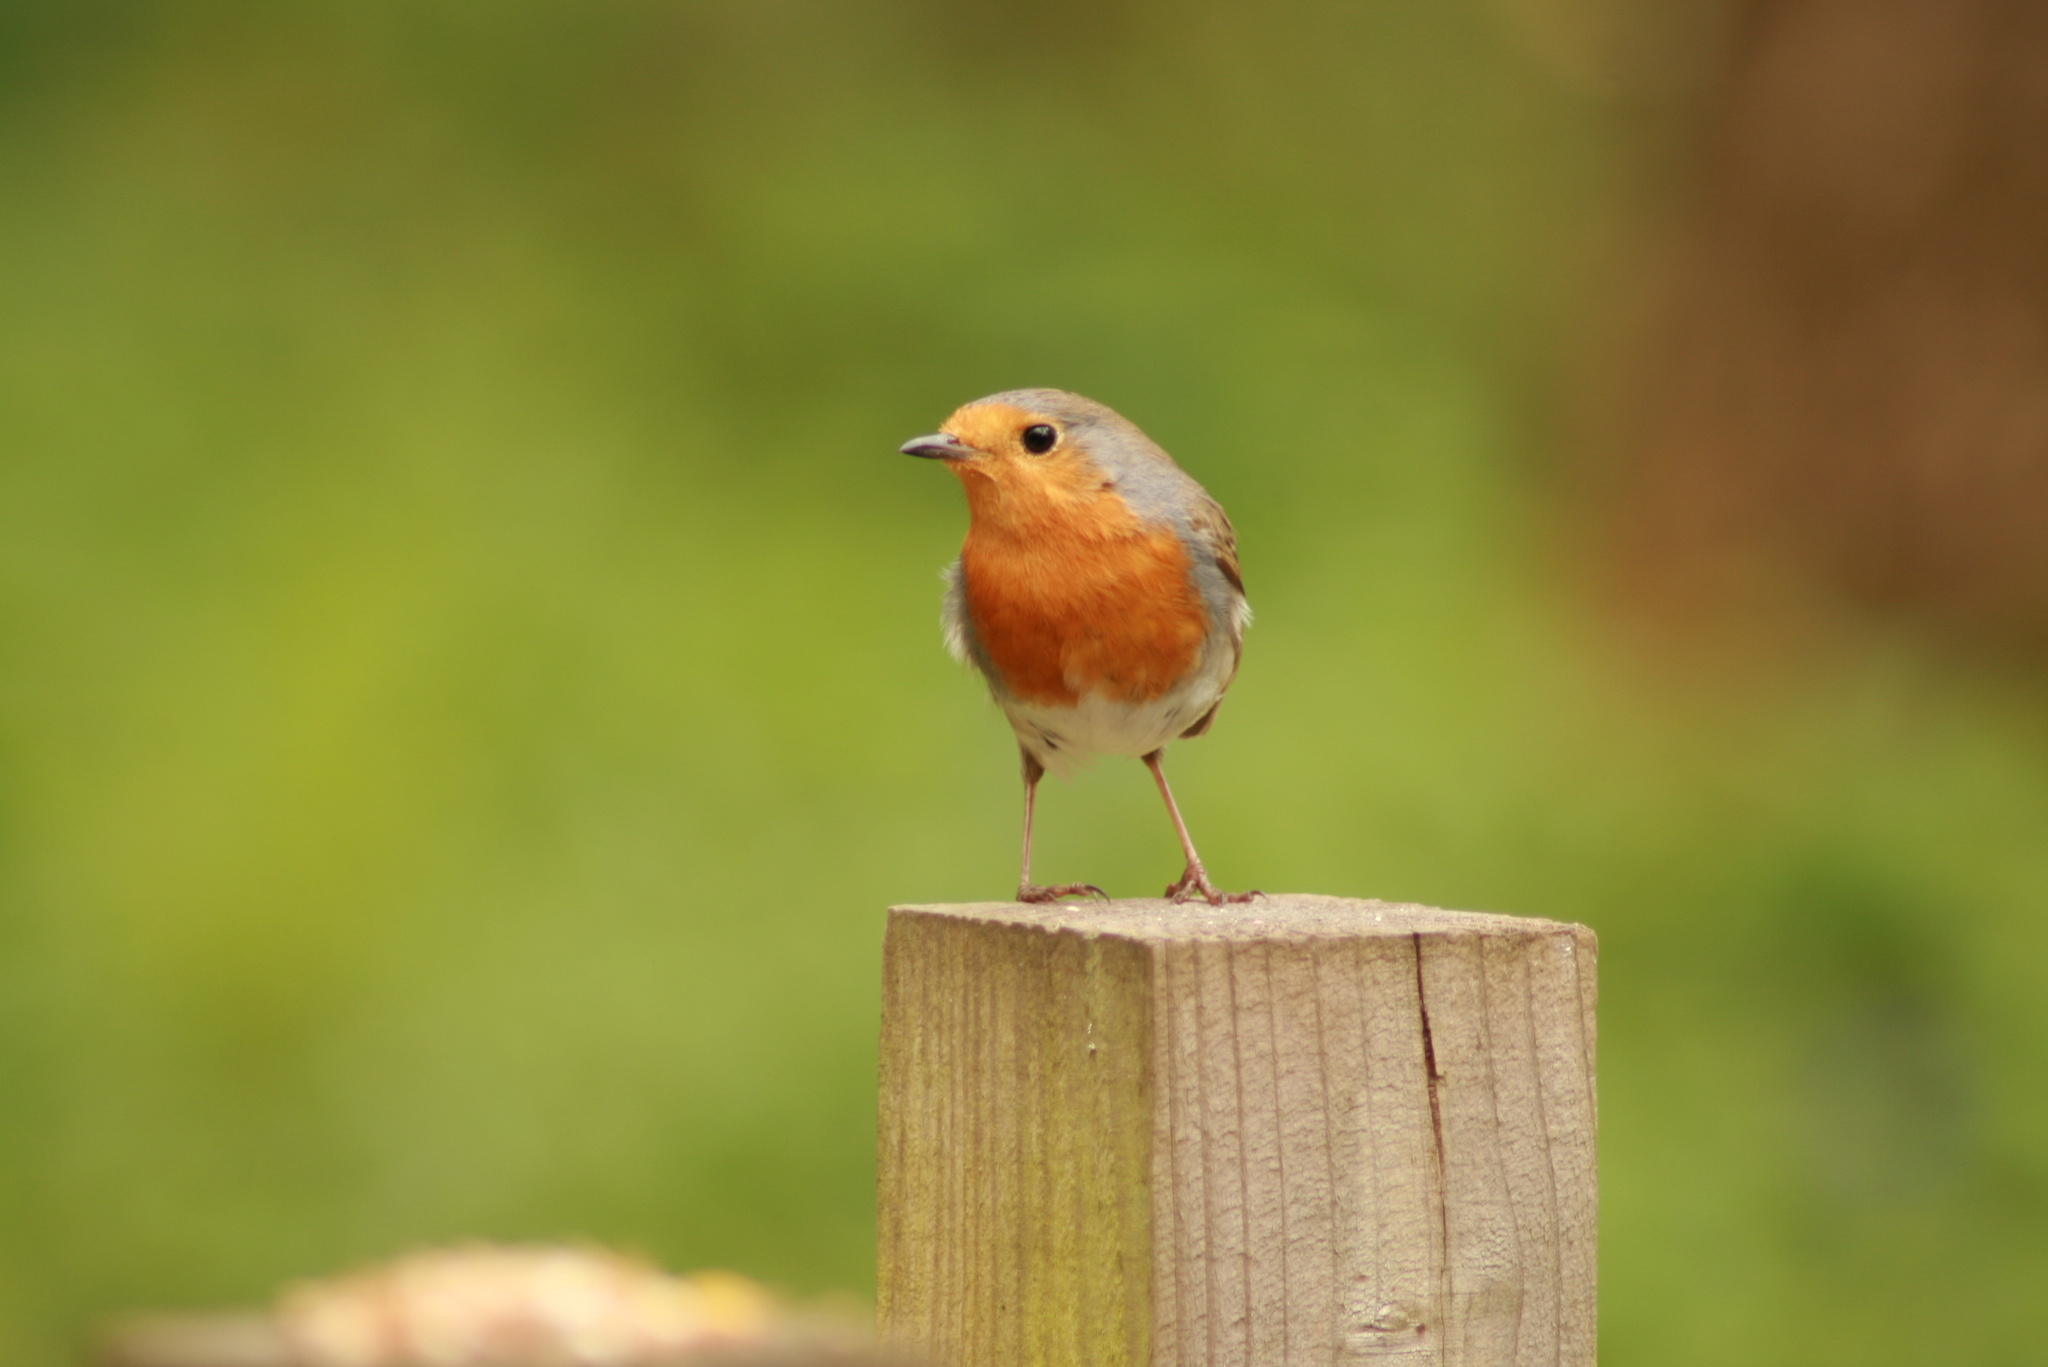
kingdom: Animalia
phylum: Chordata
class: Aves
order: Passeriformes
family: Muscicapidae
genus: Erithacus
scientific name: Erithacus rubecula
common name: European robin
